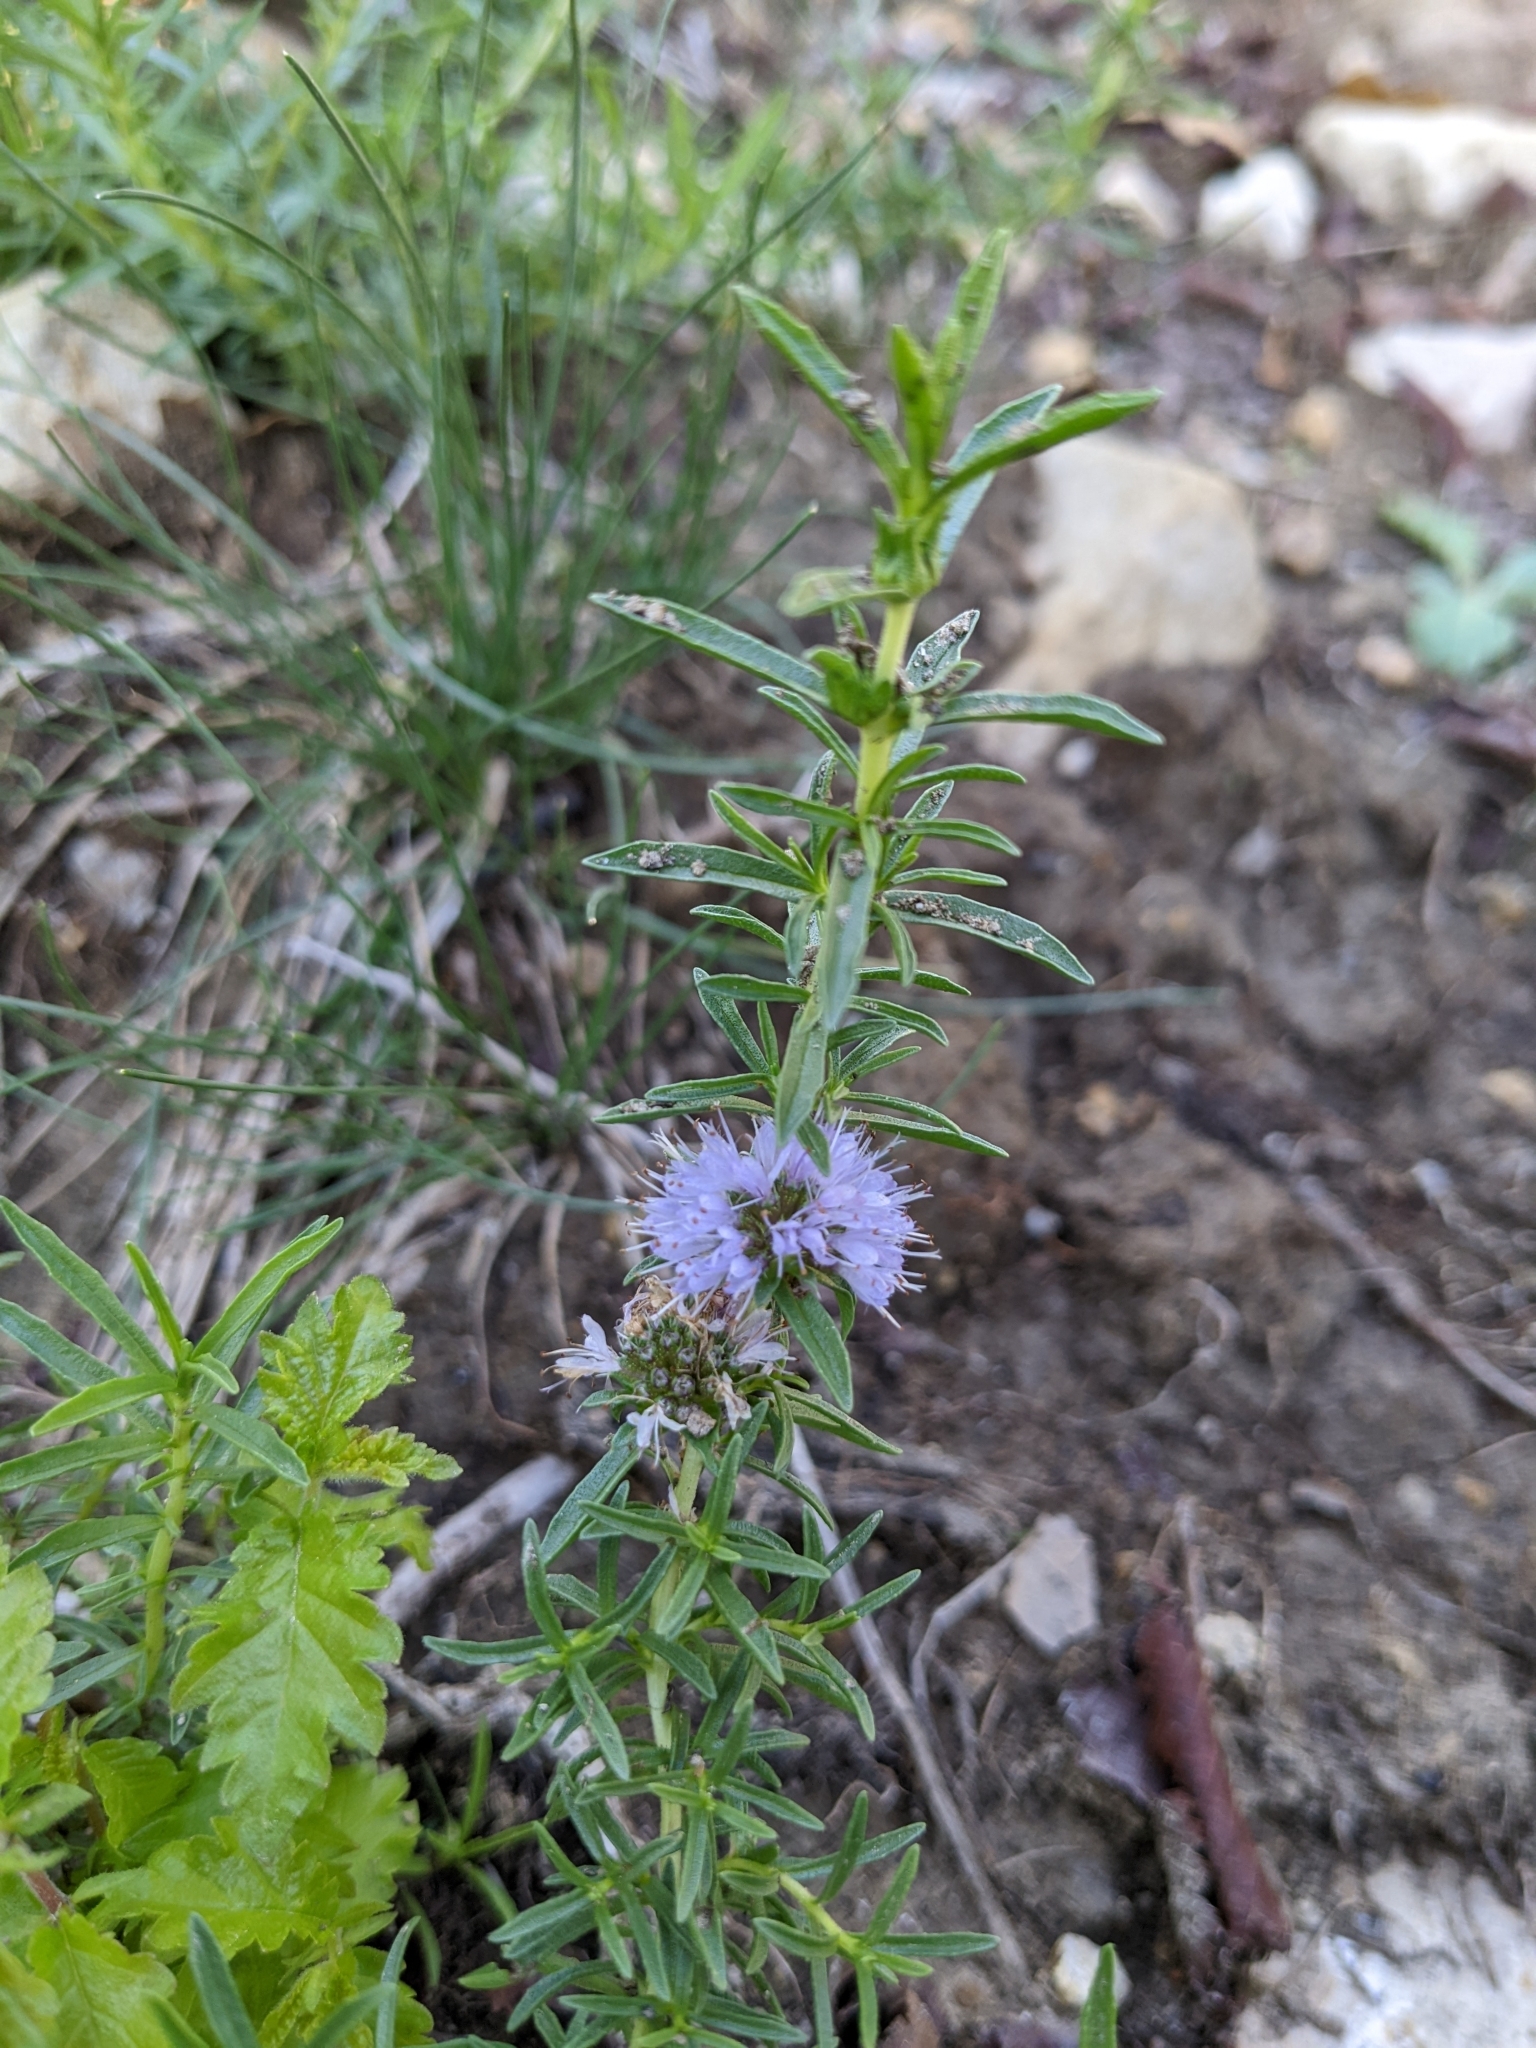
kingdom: Plantae
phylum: Tracheophyta
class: Magnoliopsida
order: Lamiales
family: Lamiaceae
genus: Mentha
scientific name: Mentha cervina
